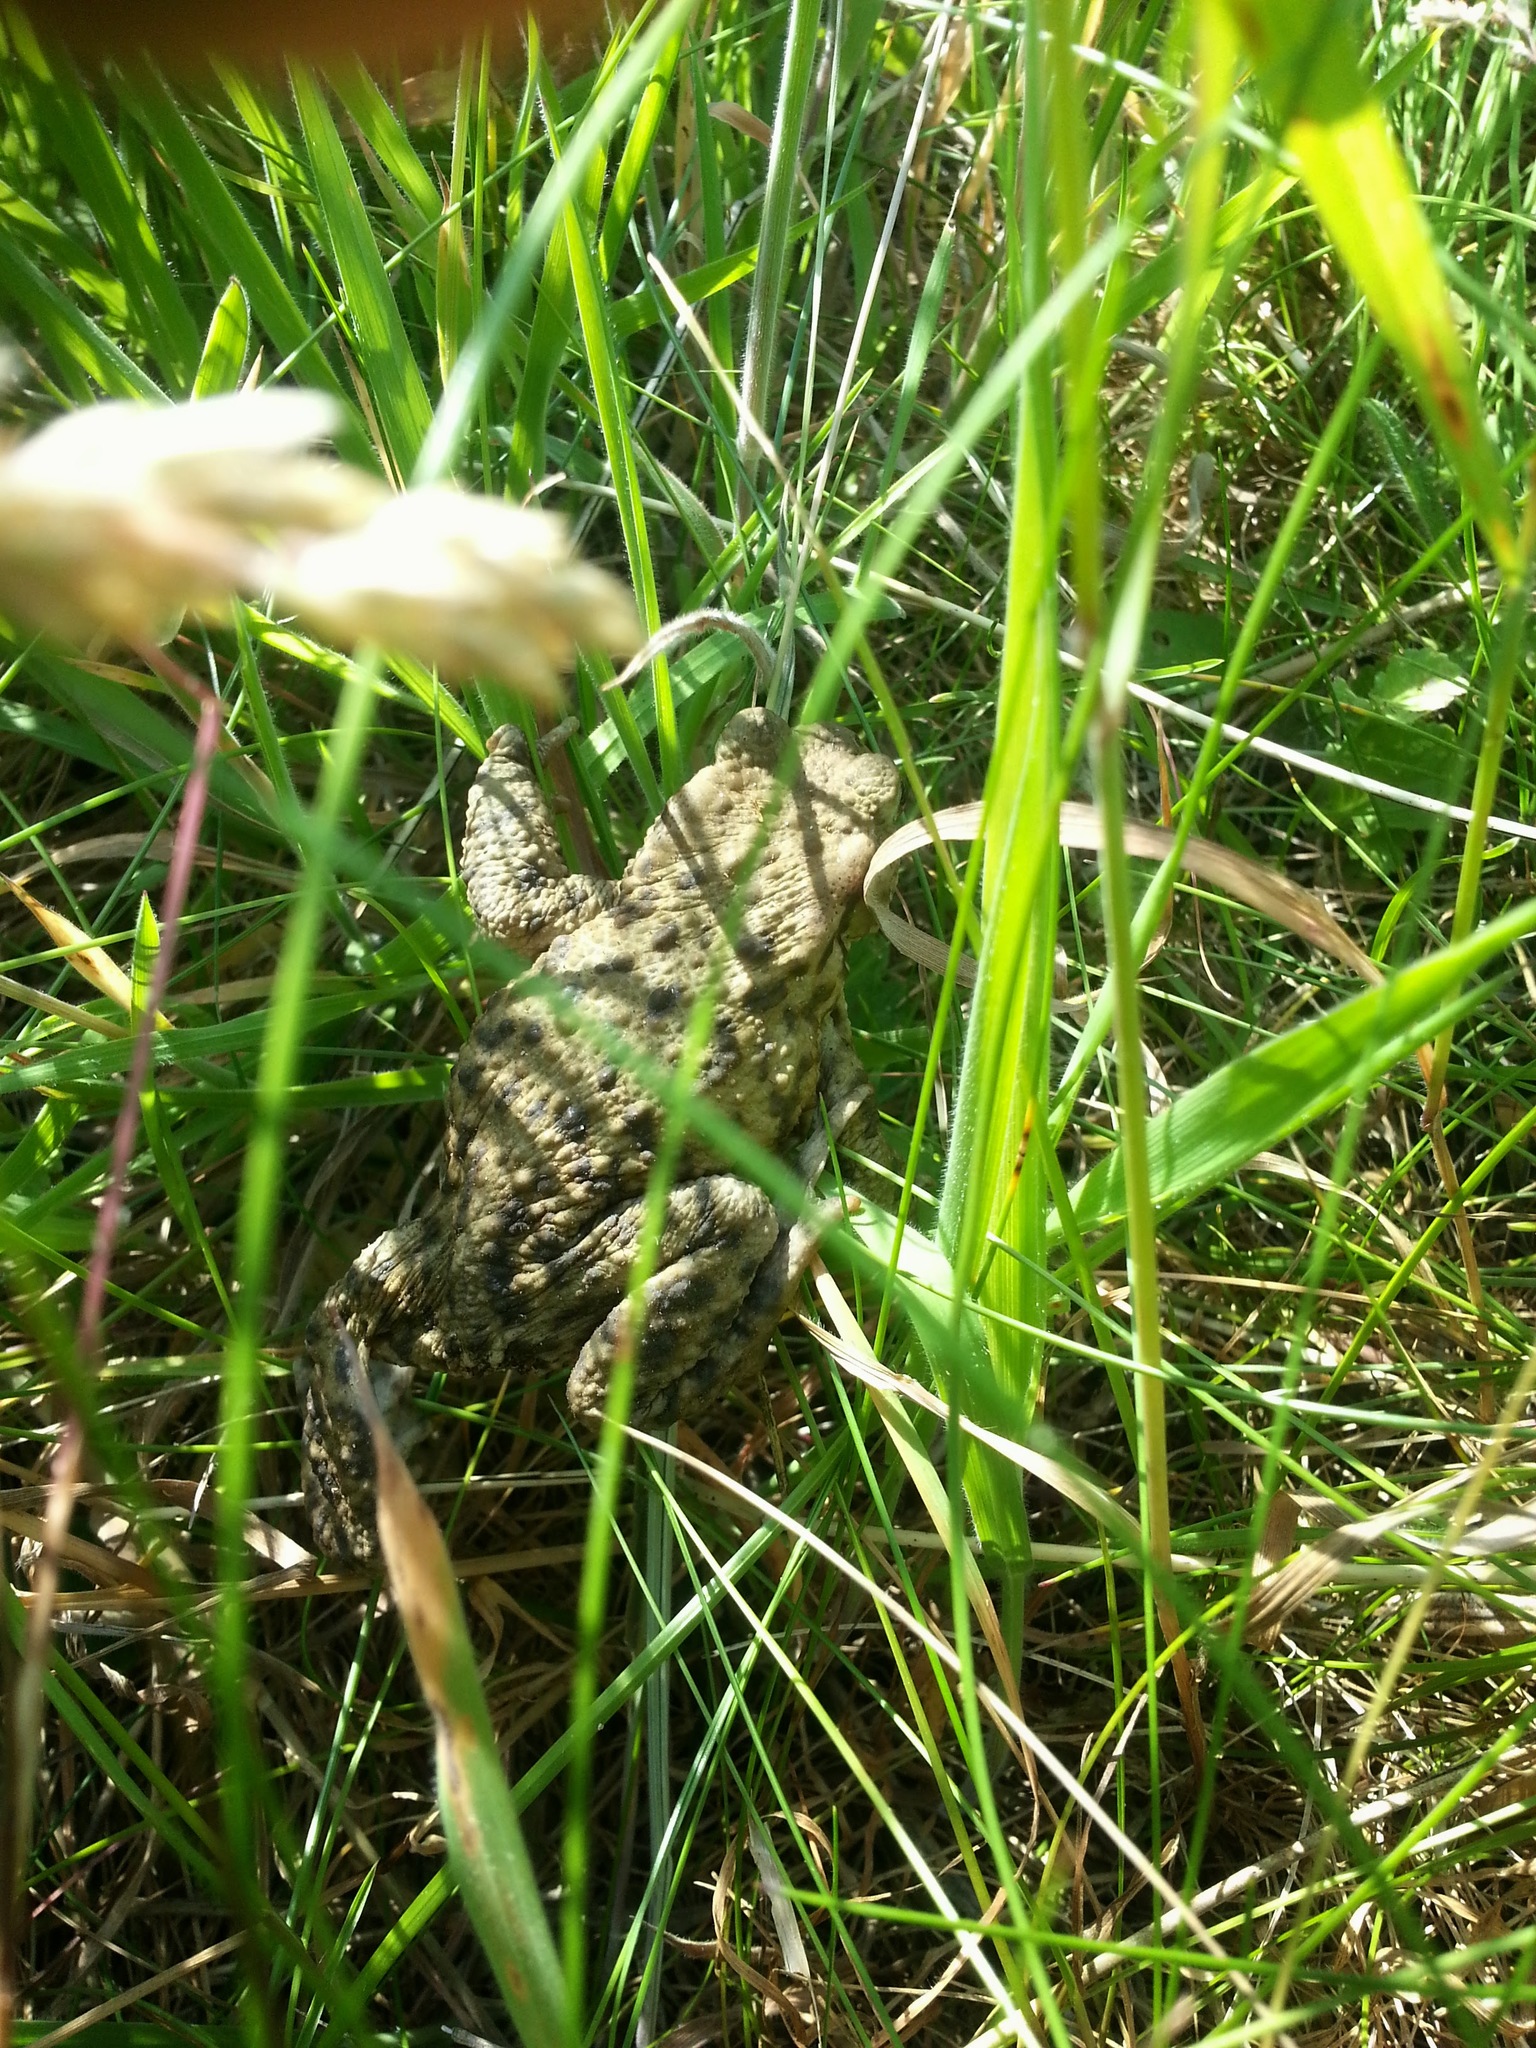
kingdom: Animalia
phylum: Chordata
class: Amphibia
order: Anura
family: Bufonidae
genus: Bufo
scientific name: Bufo bufo
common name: Common toad
